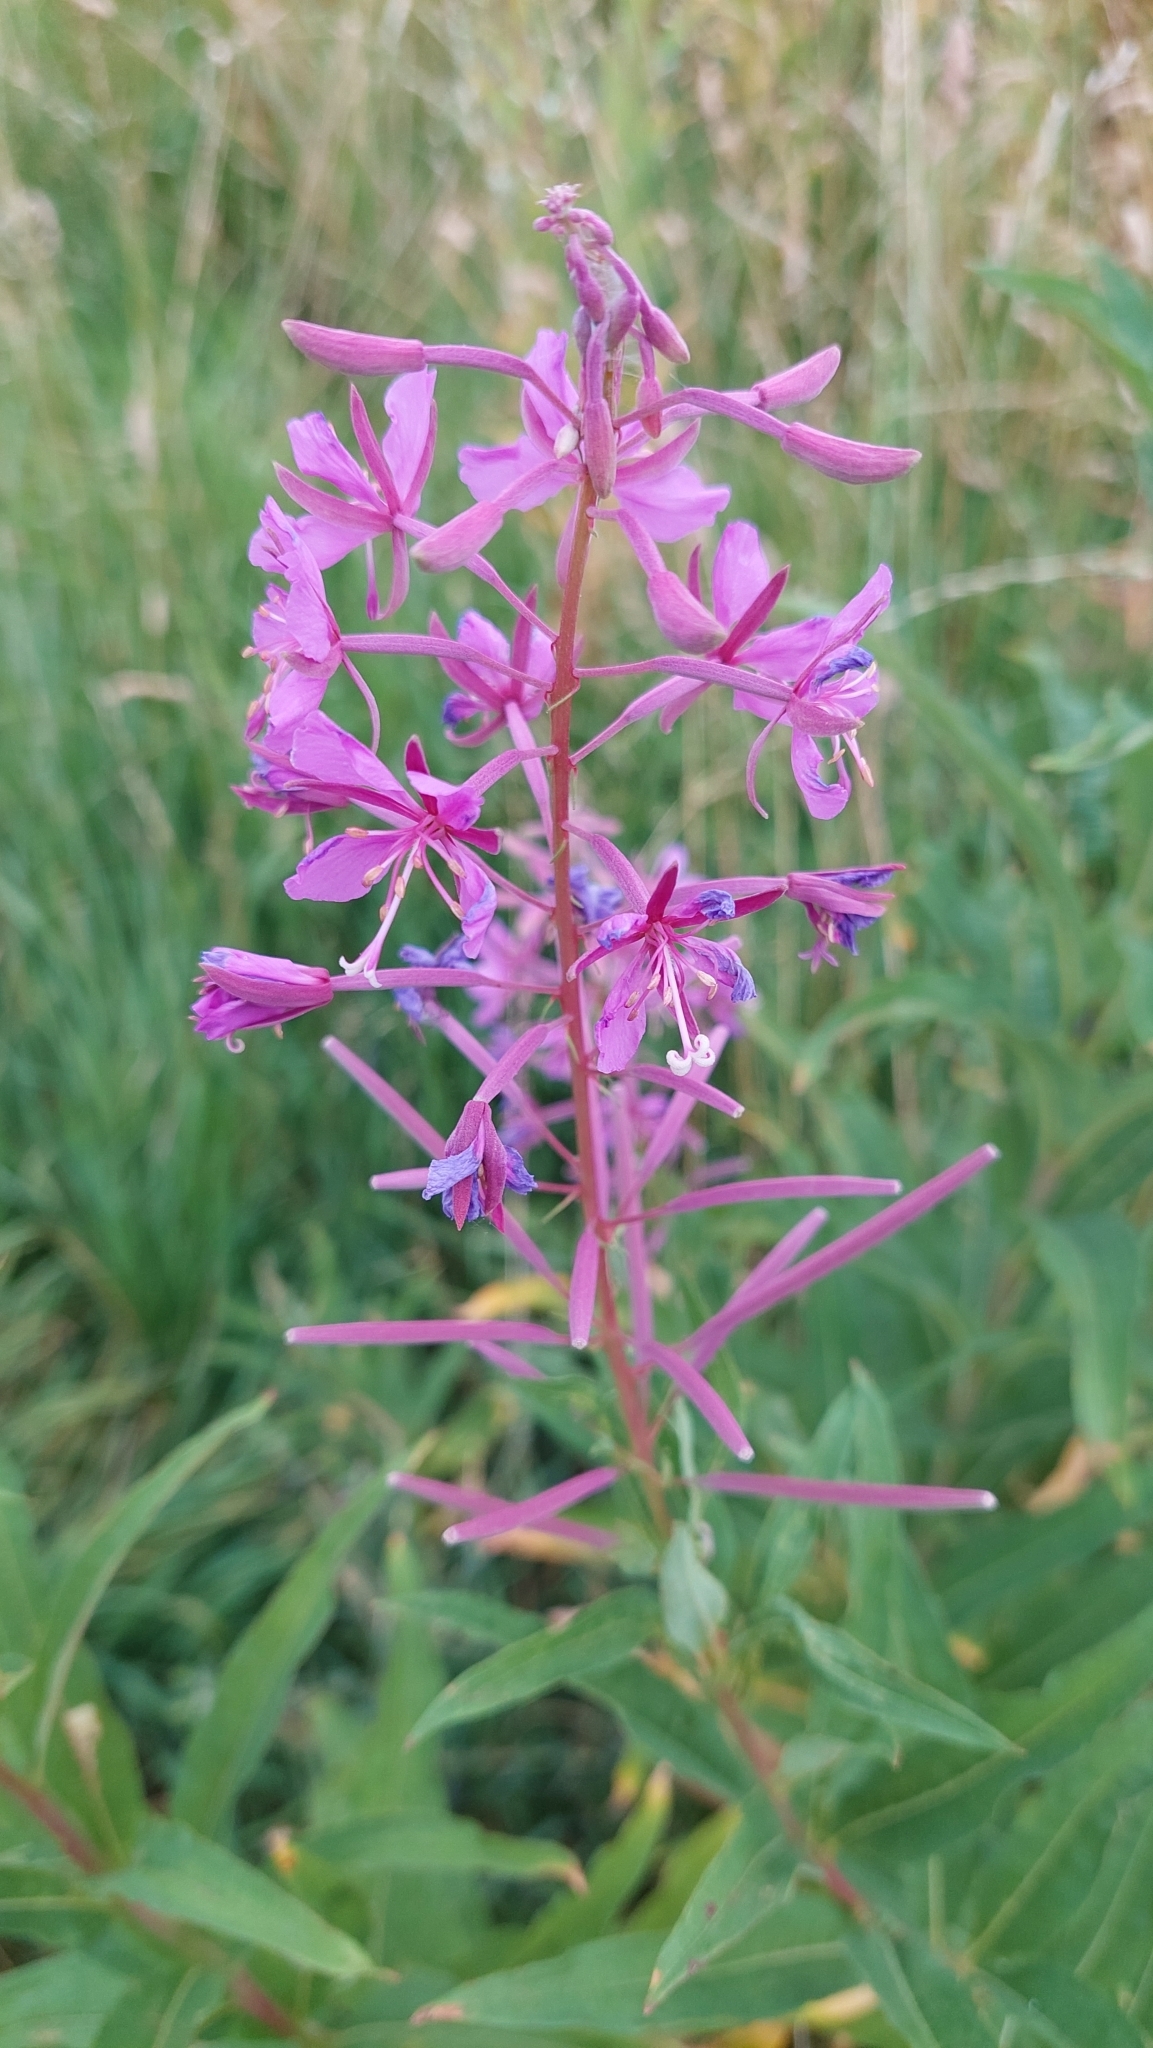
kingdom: Plantae
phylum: Tracheophyta
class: Magnoliopsida
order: Myrtales
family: Onagraceae
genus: Chamaenerion
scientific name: Chamaenerion angustifolium
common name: Fireweed
